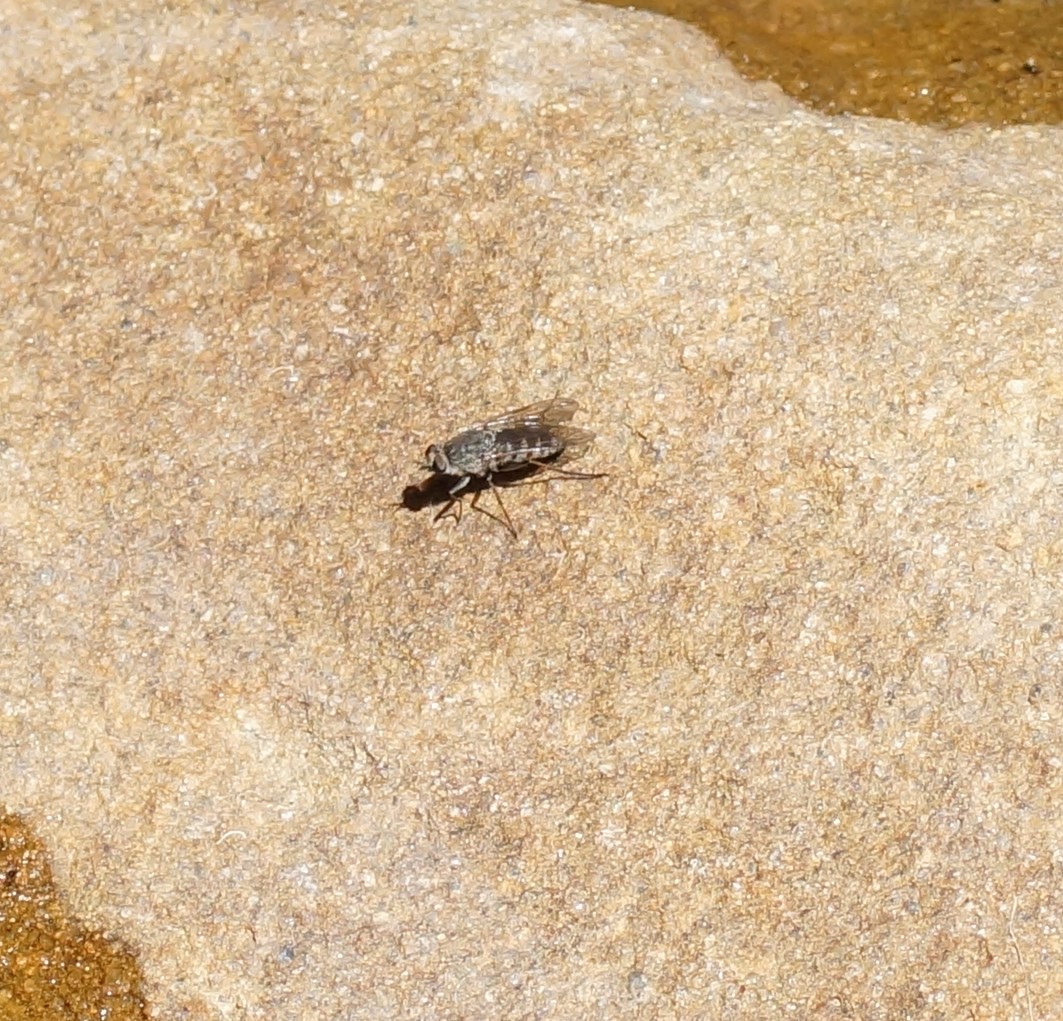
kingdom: Animalia
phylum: Arthropoda
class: Insecta
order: Diptera
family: Therevidae
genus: Anabarhynchus
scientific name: Anabarhynchus varipes
